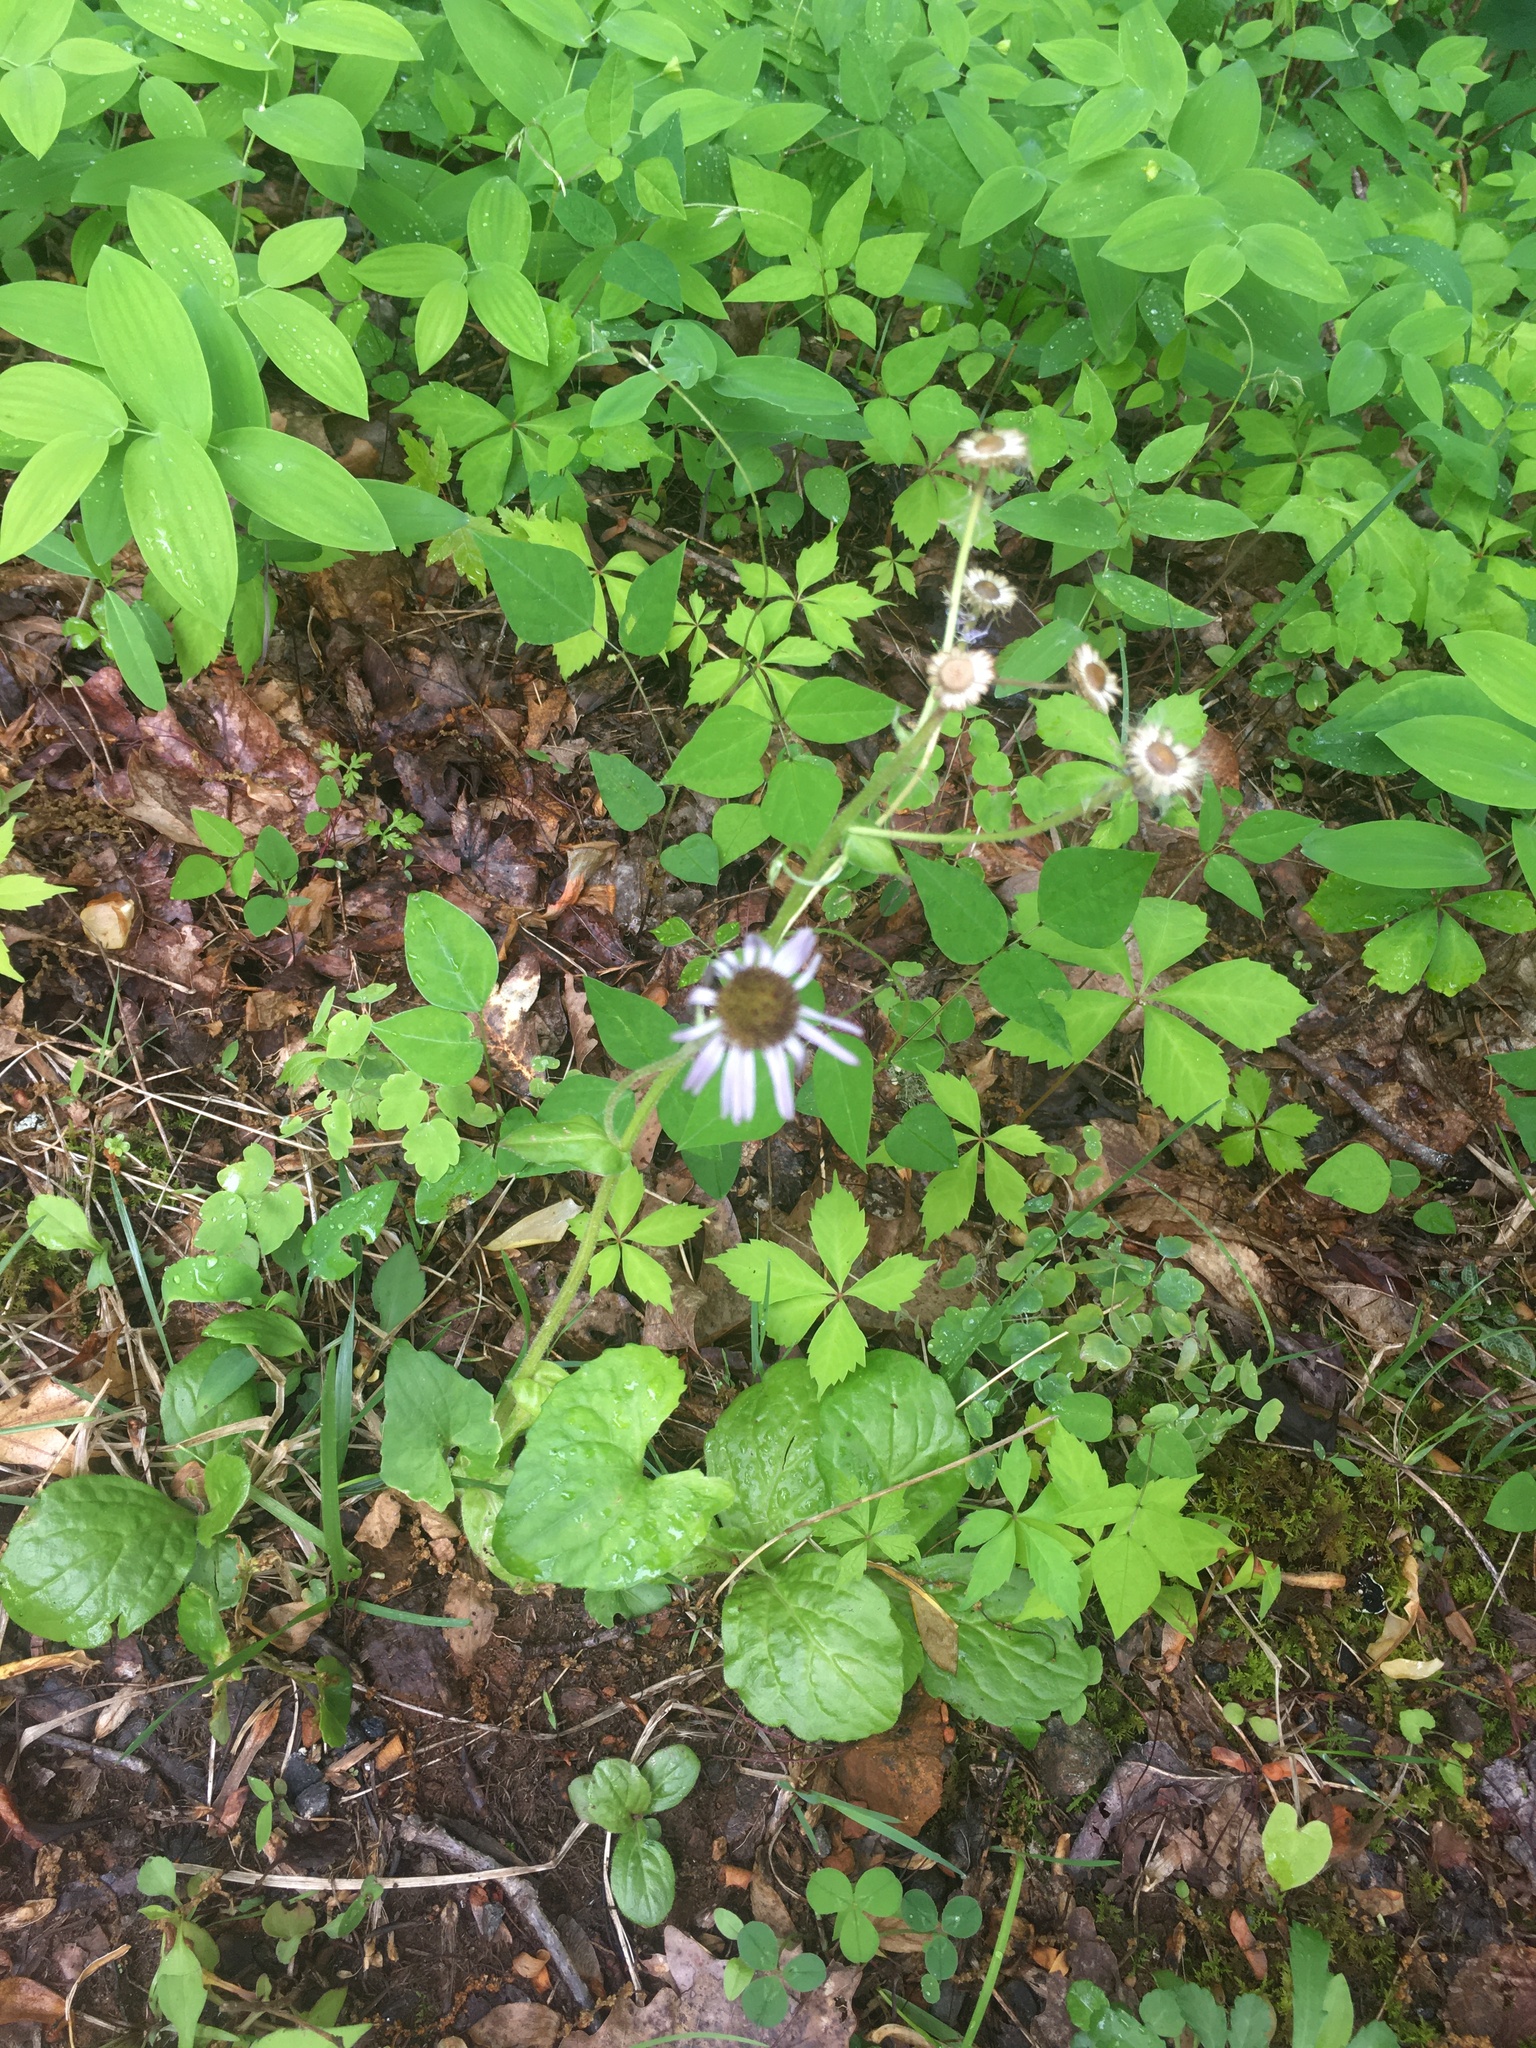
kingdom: Plantae
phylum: Tracheophyta
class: Magnoliopsida
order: Asterales
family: Asteraceae
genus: Erigeron
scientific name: Erigeron pulchellus
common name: Hairy fleabane
